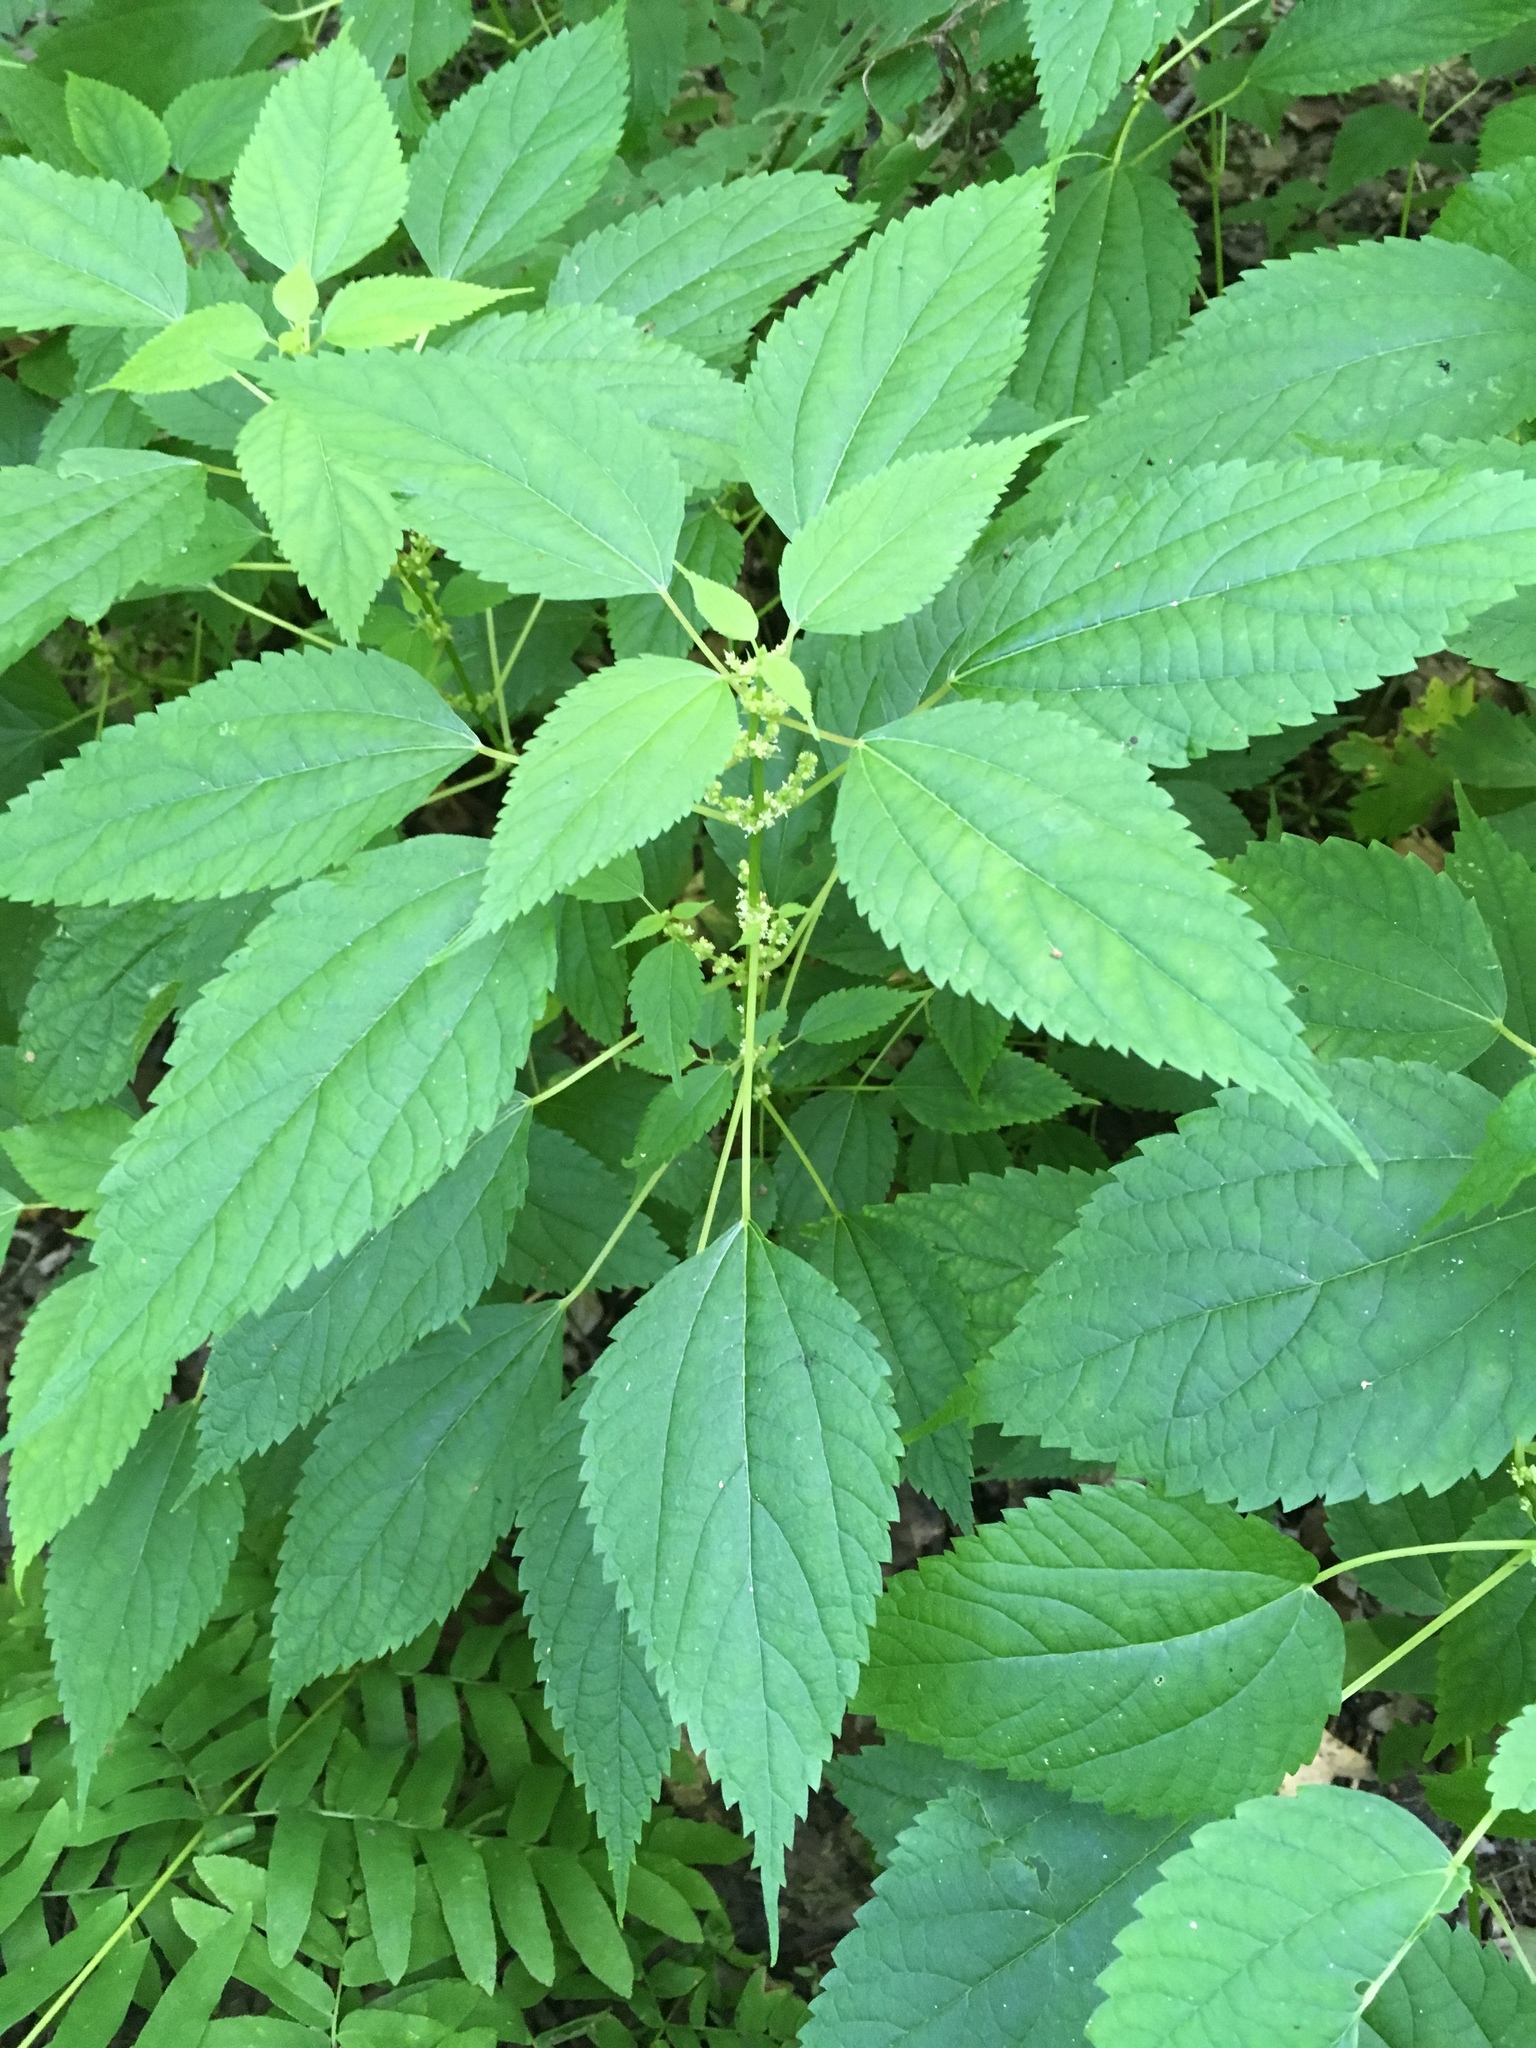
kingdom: Plantae
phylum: Tracheophyta
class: Magnoliopsida
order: Rosales
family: Urticaceae
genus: Boehmeria
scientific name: Boehmeria cylindrica
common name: Bog-hemp
